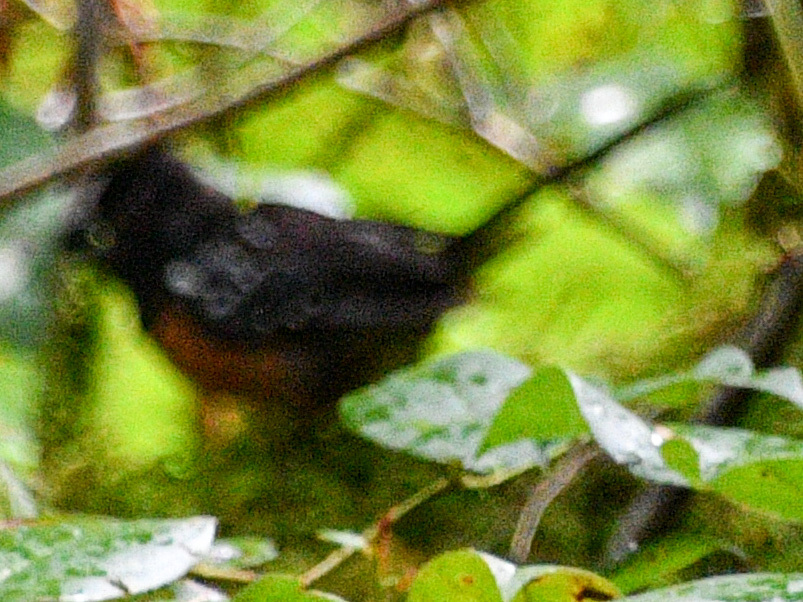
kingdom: Animalia
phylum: Chordata
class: Aves
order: Passeriformes
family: Passerellidae
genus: Pipilo
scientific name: Pipilo maculatus
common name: Spotted towhee
